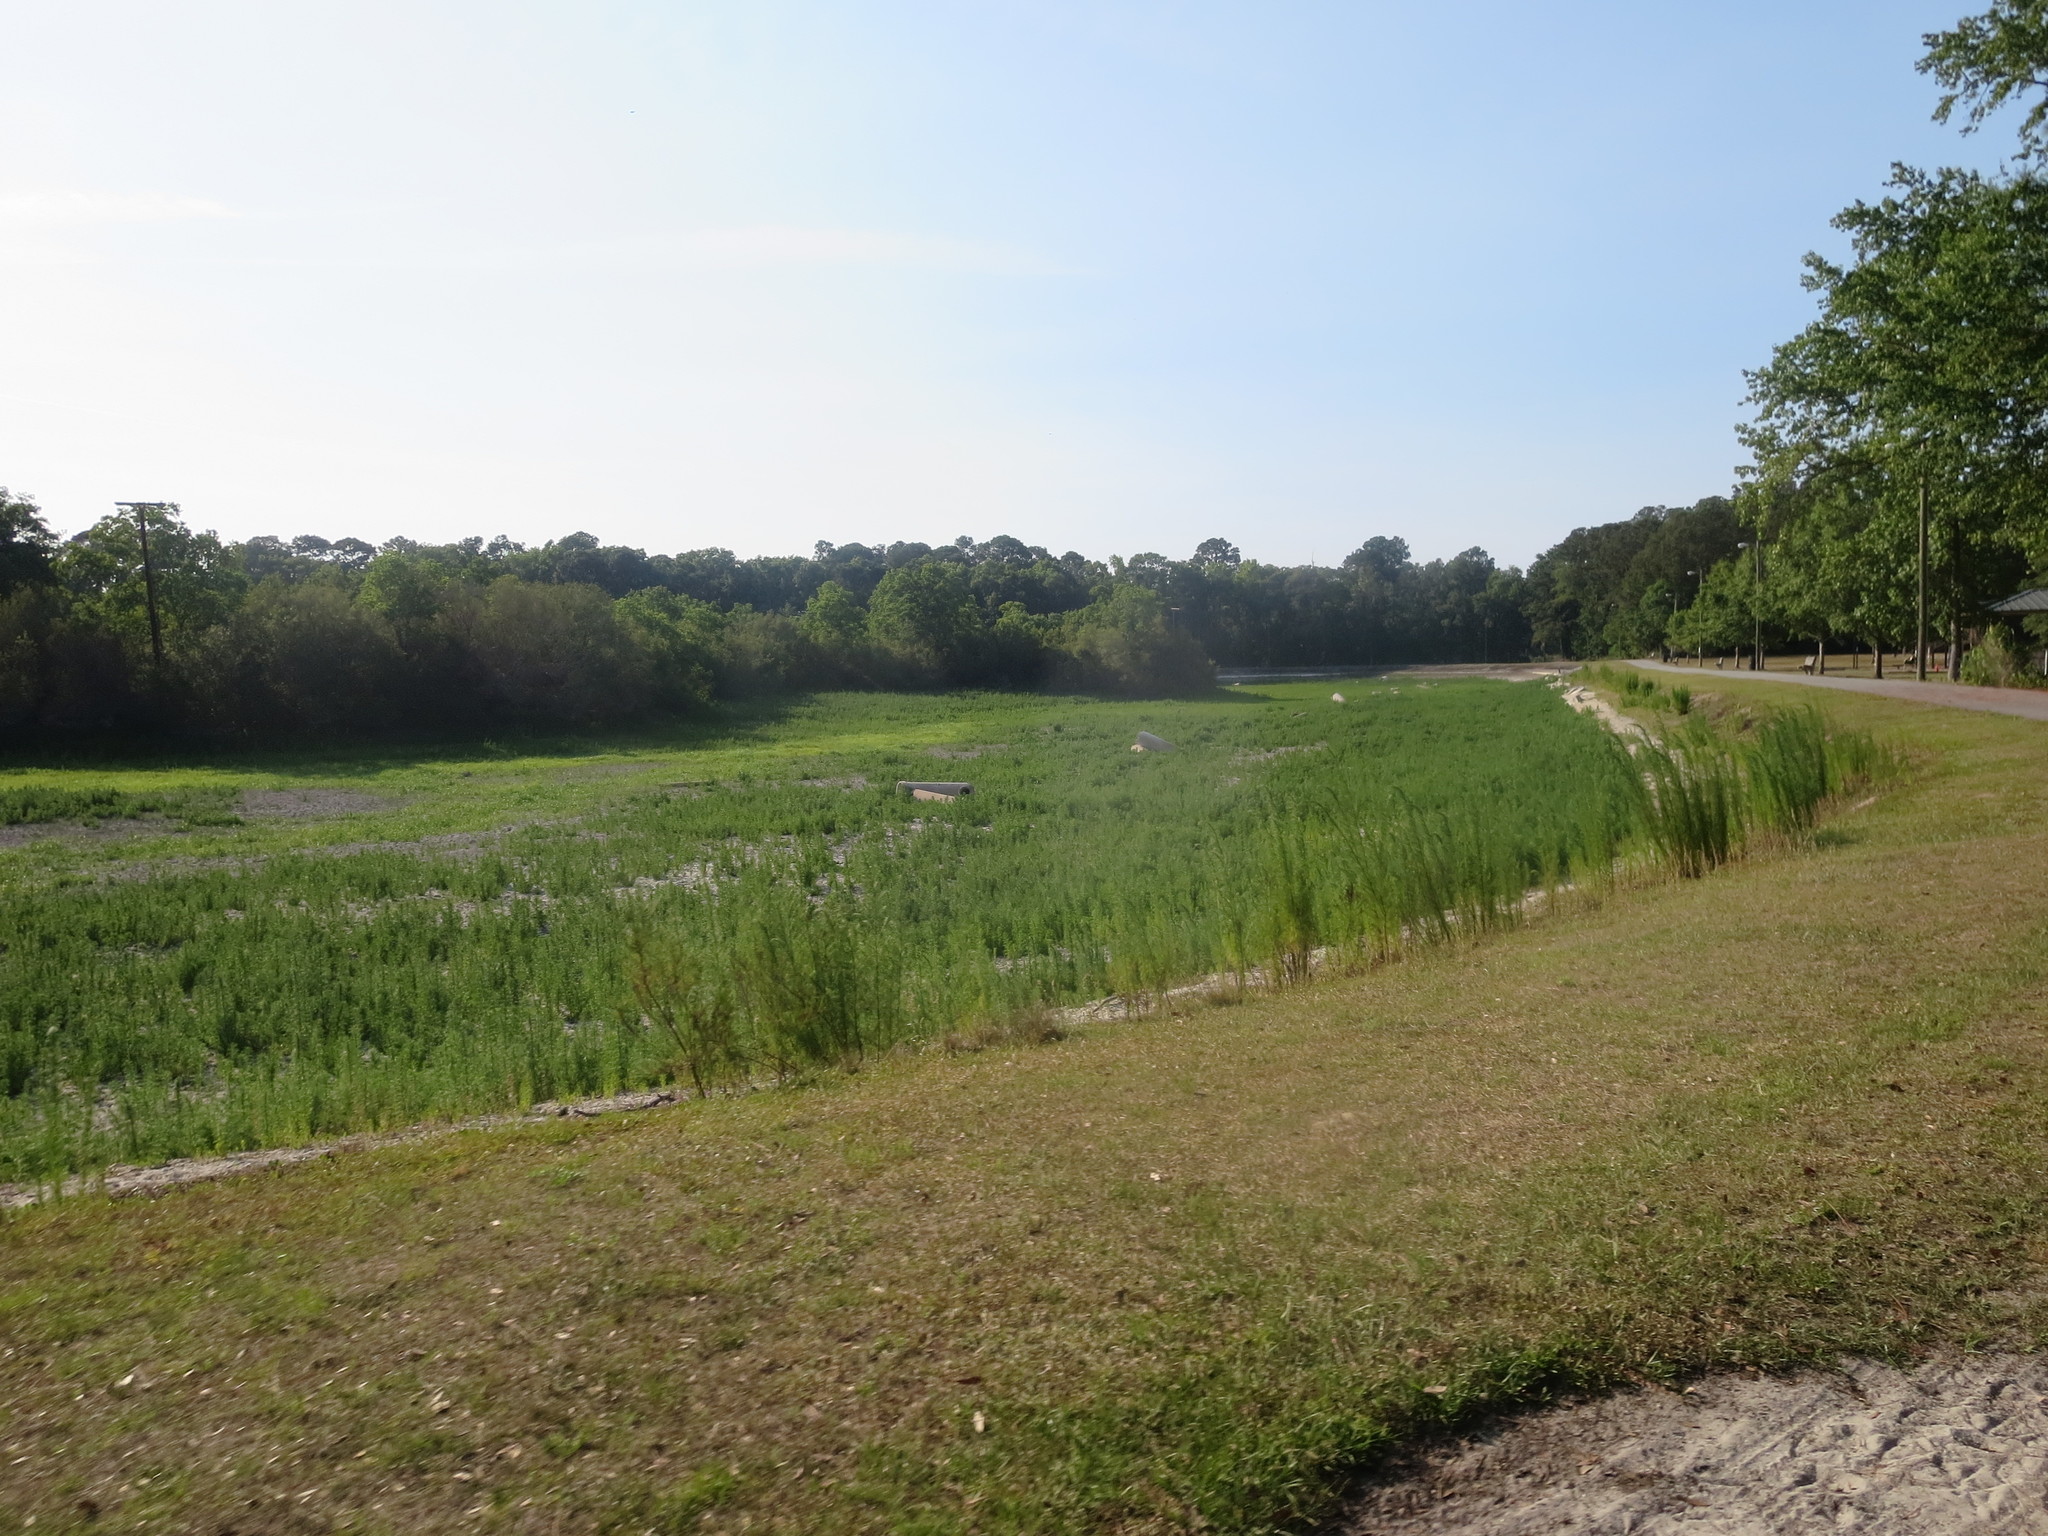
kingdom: Plantae
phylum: Tracheophyta
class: Magnoliopsida
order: Asterales
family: Asteraceae
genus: Eupatorium
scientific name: Eupatorium capillifolium
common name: Dog-fennel
